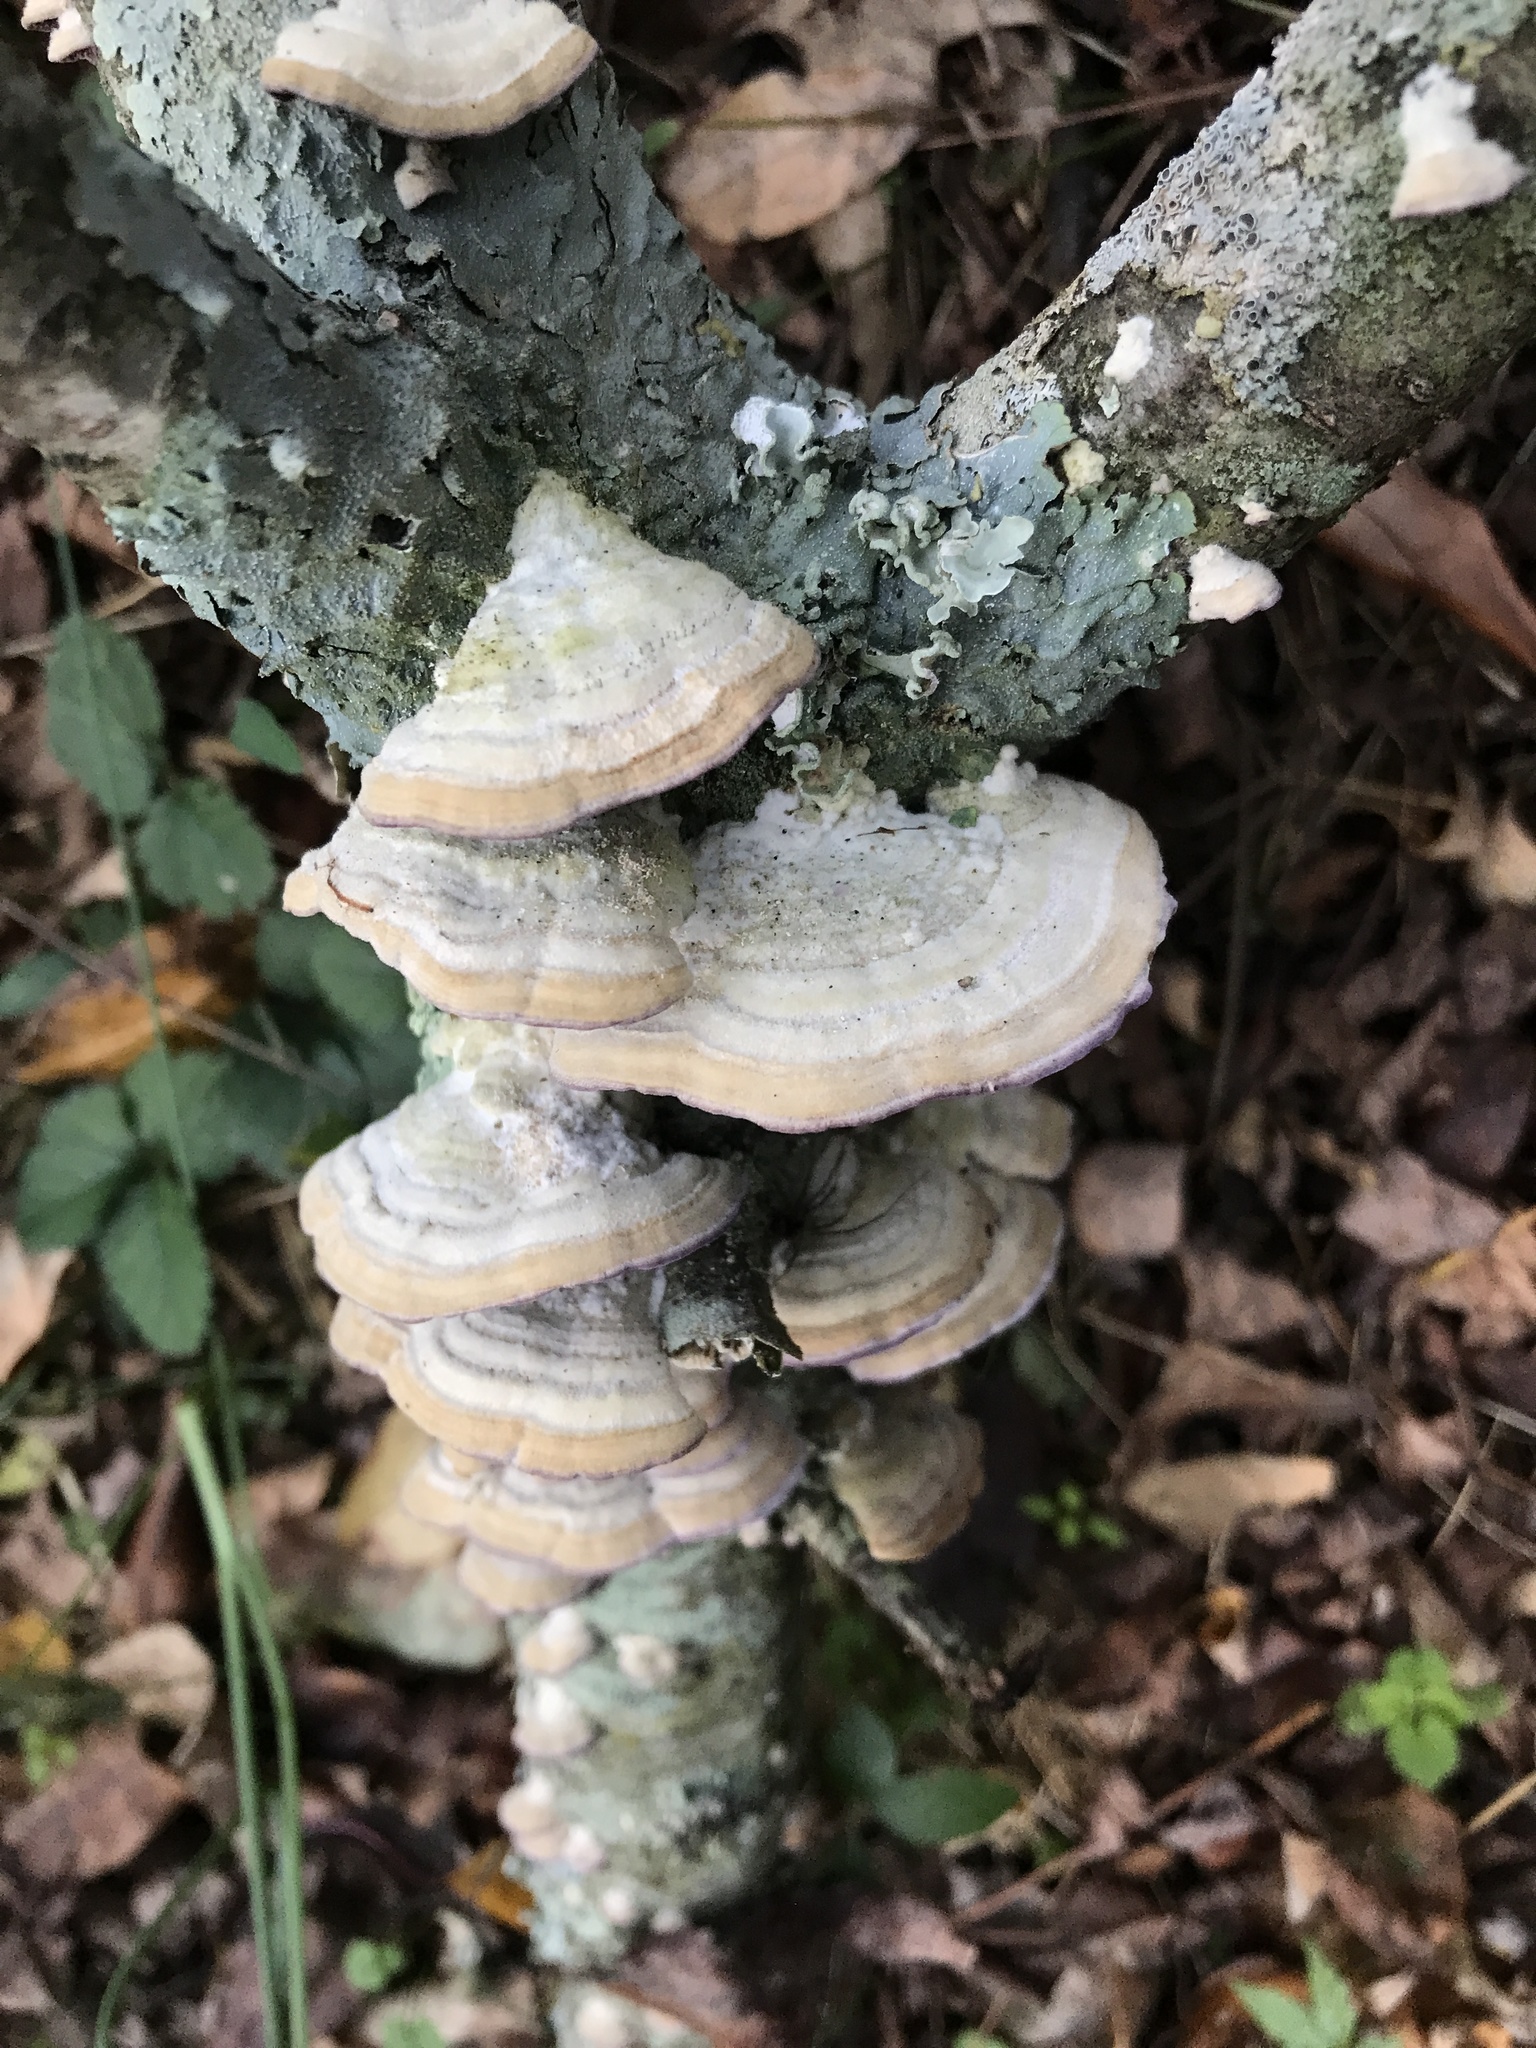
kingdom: Fungi
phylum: Basidiomycota
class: Agaricomycetes
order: Hymenochaetales
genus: Trichaptum
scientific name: Trichaptum biforme
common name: Violet-toothed polypore
